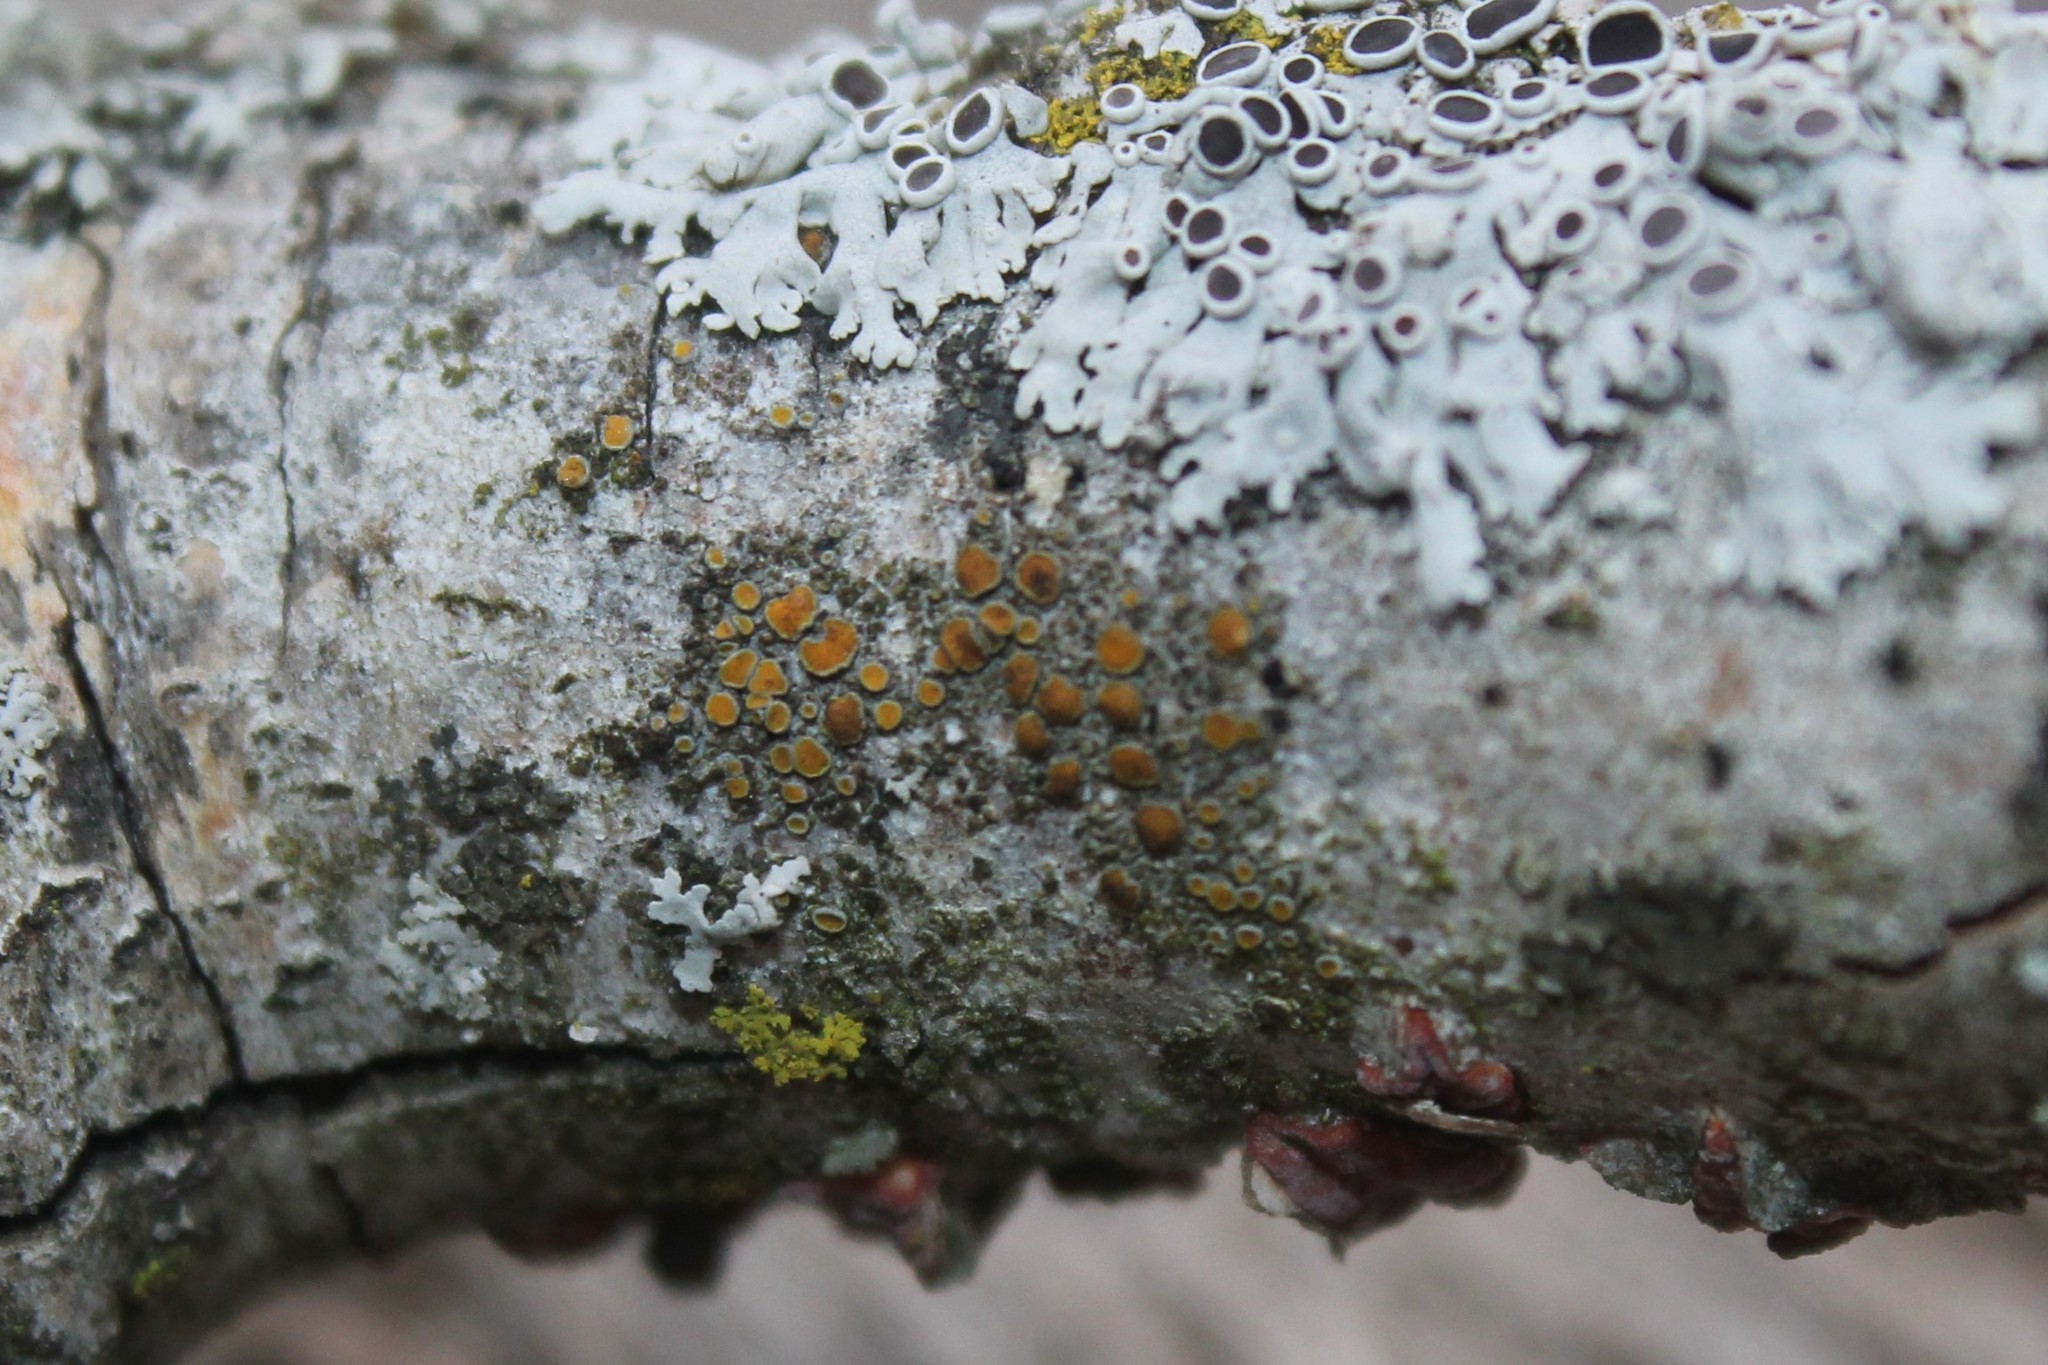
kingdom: Fungi
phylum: Ascomycota
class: Lecanoromycetes
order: Teloschistales
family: Teloschistaceae
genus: Caloplaca
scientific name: Caloplaca cerina
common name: Gray-rimmed firedot lichen
